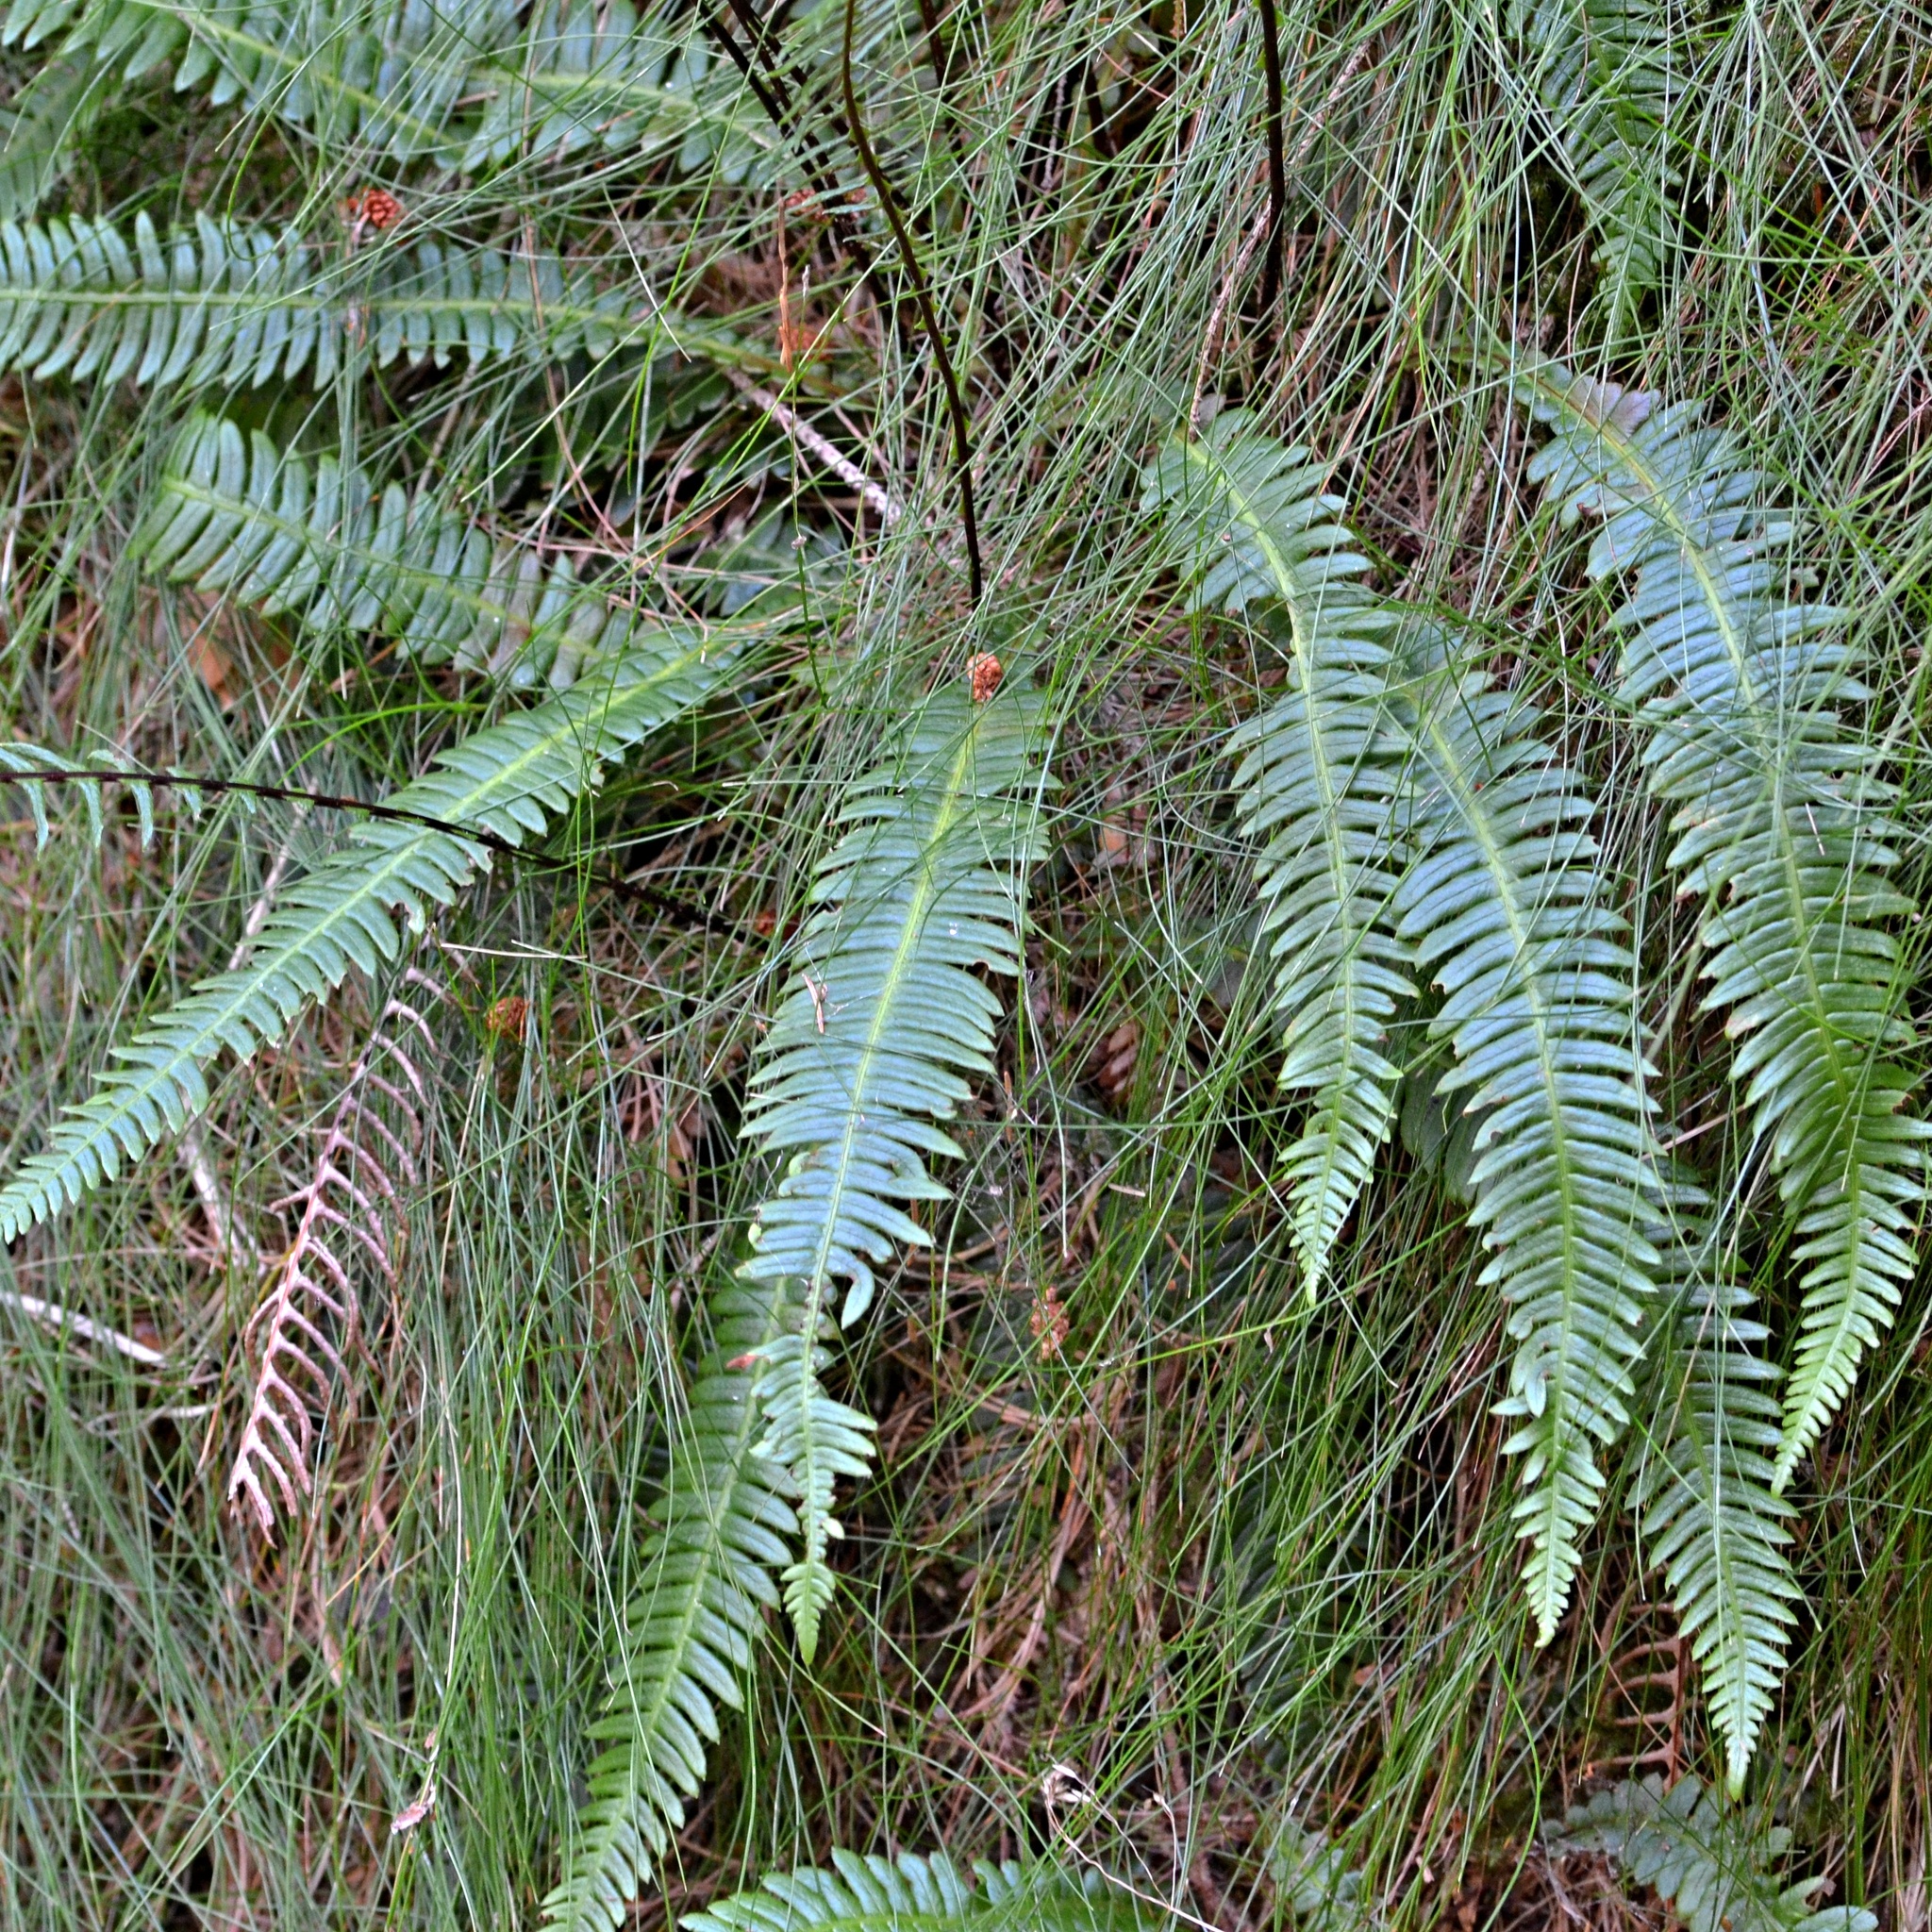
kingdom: Plantae
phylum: Tracheophyta
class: Polypodiopsida
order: Polypodiales
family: Blechnaceae
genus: Struthiopteris
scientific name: Struthiopteris spicant
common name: Deer fern
